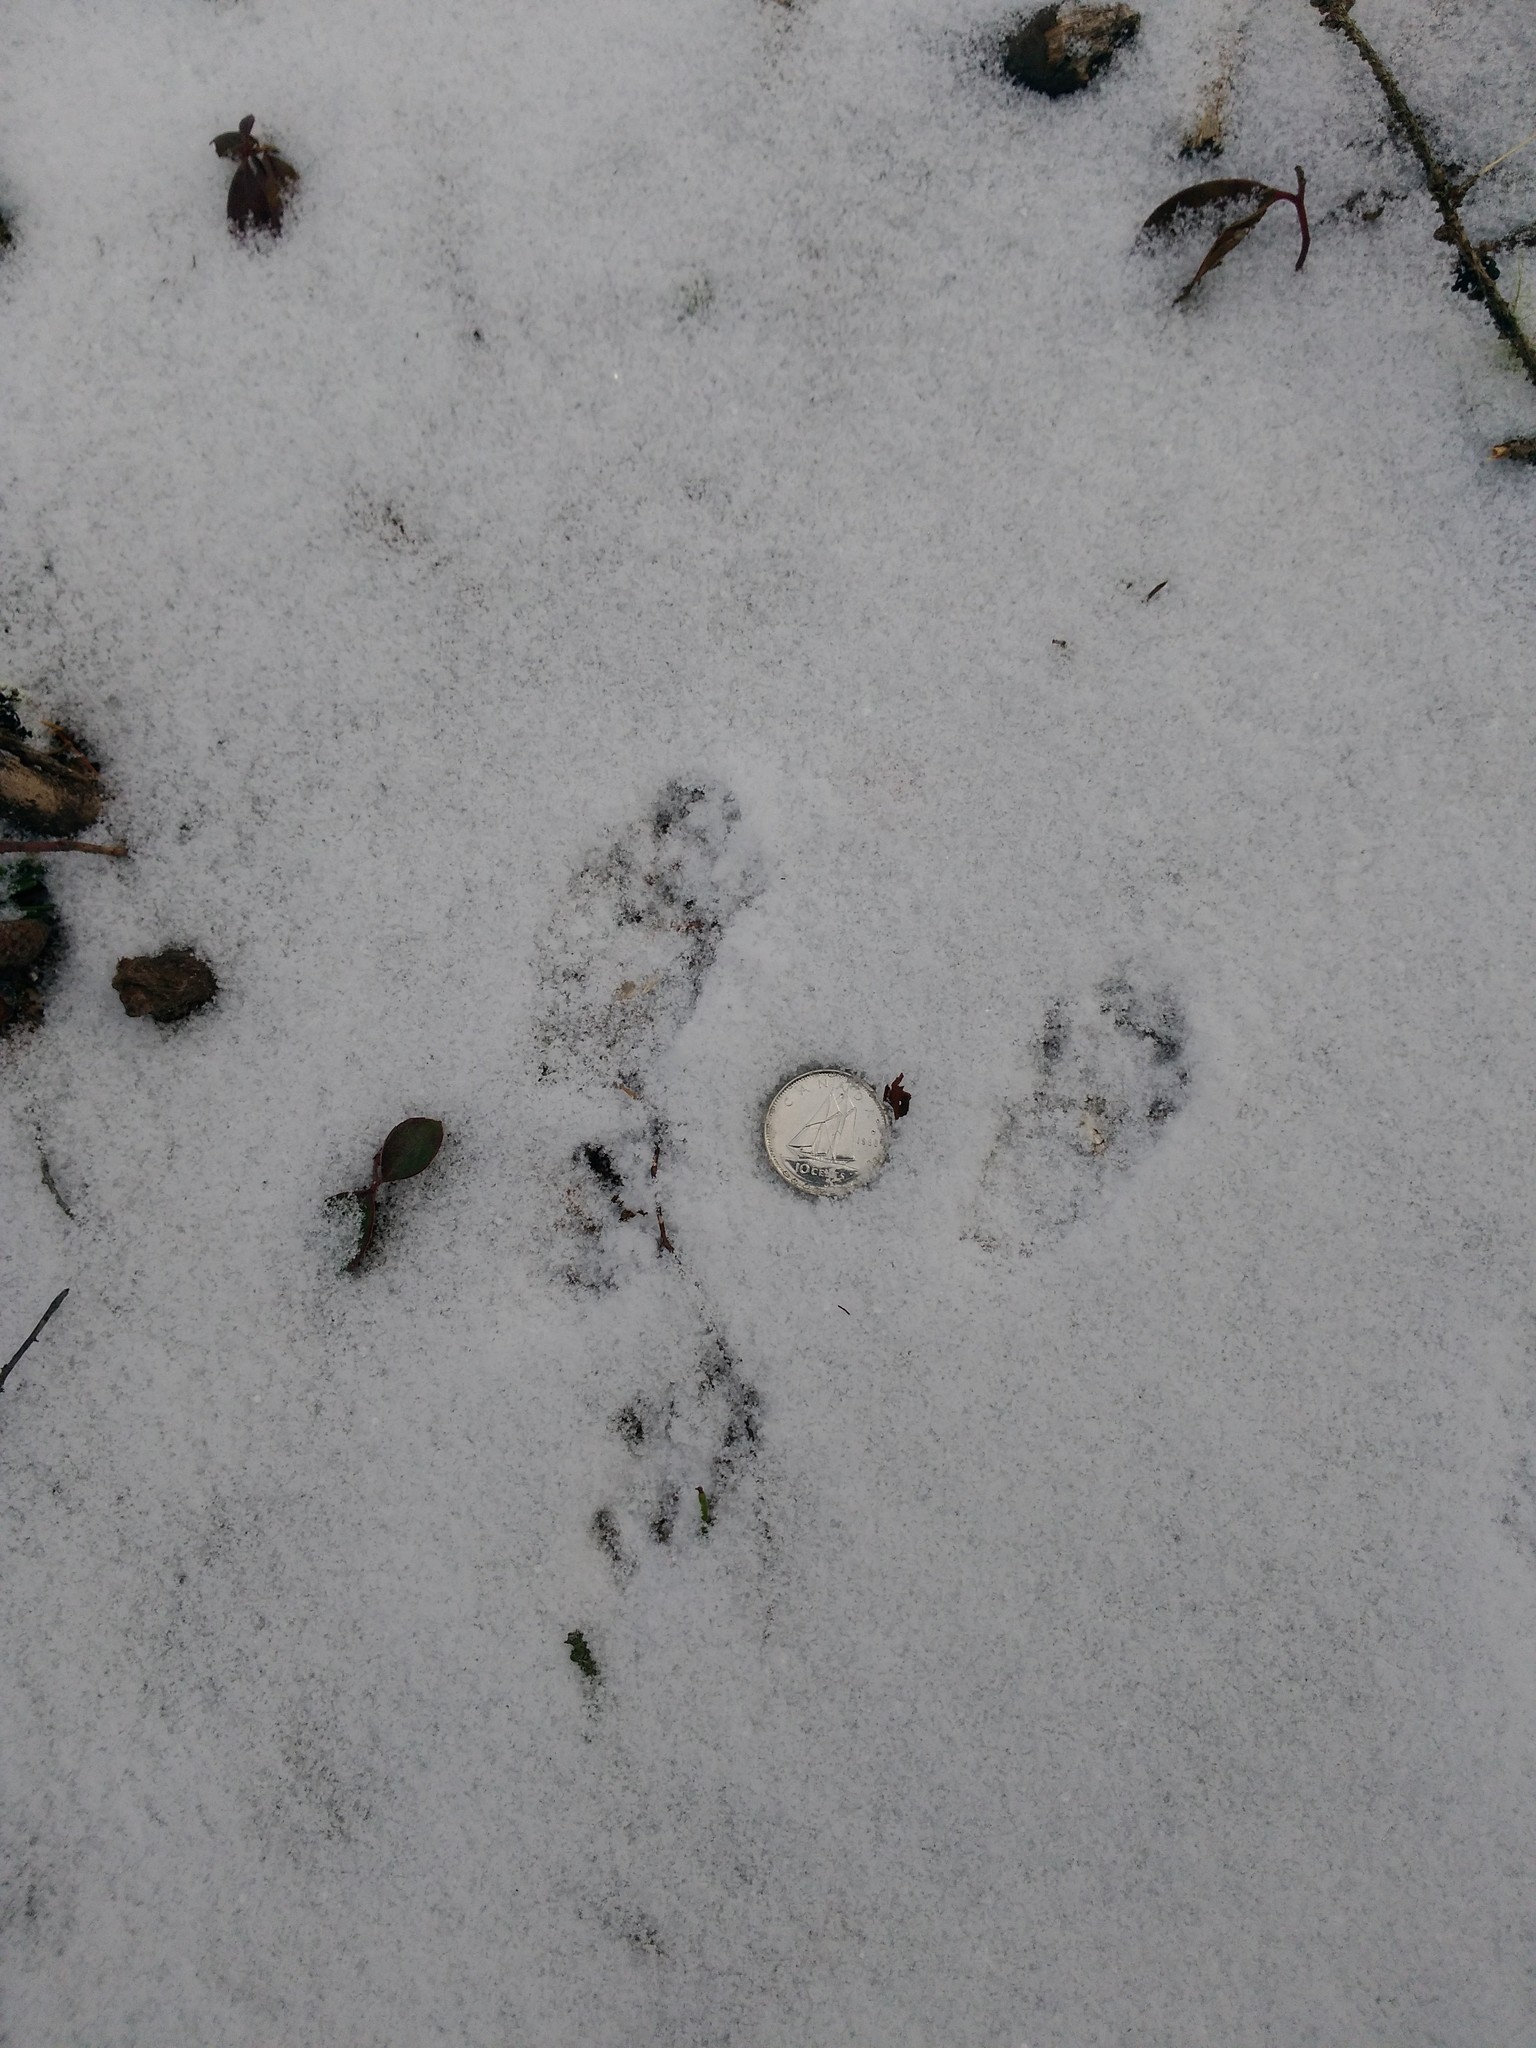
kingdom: Animalia
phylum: Chordata
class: Mammalia
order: Rodentia
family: Sciuridae
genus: Tamiasciurus
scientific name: Tamiasciurus hudsonicus
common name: Red squirrel
